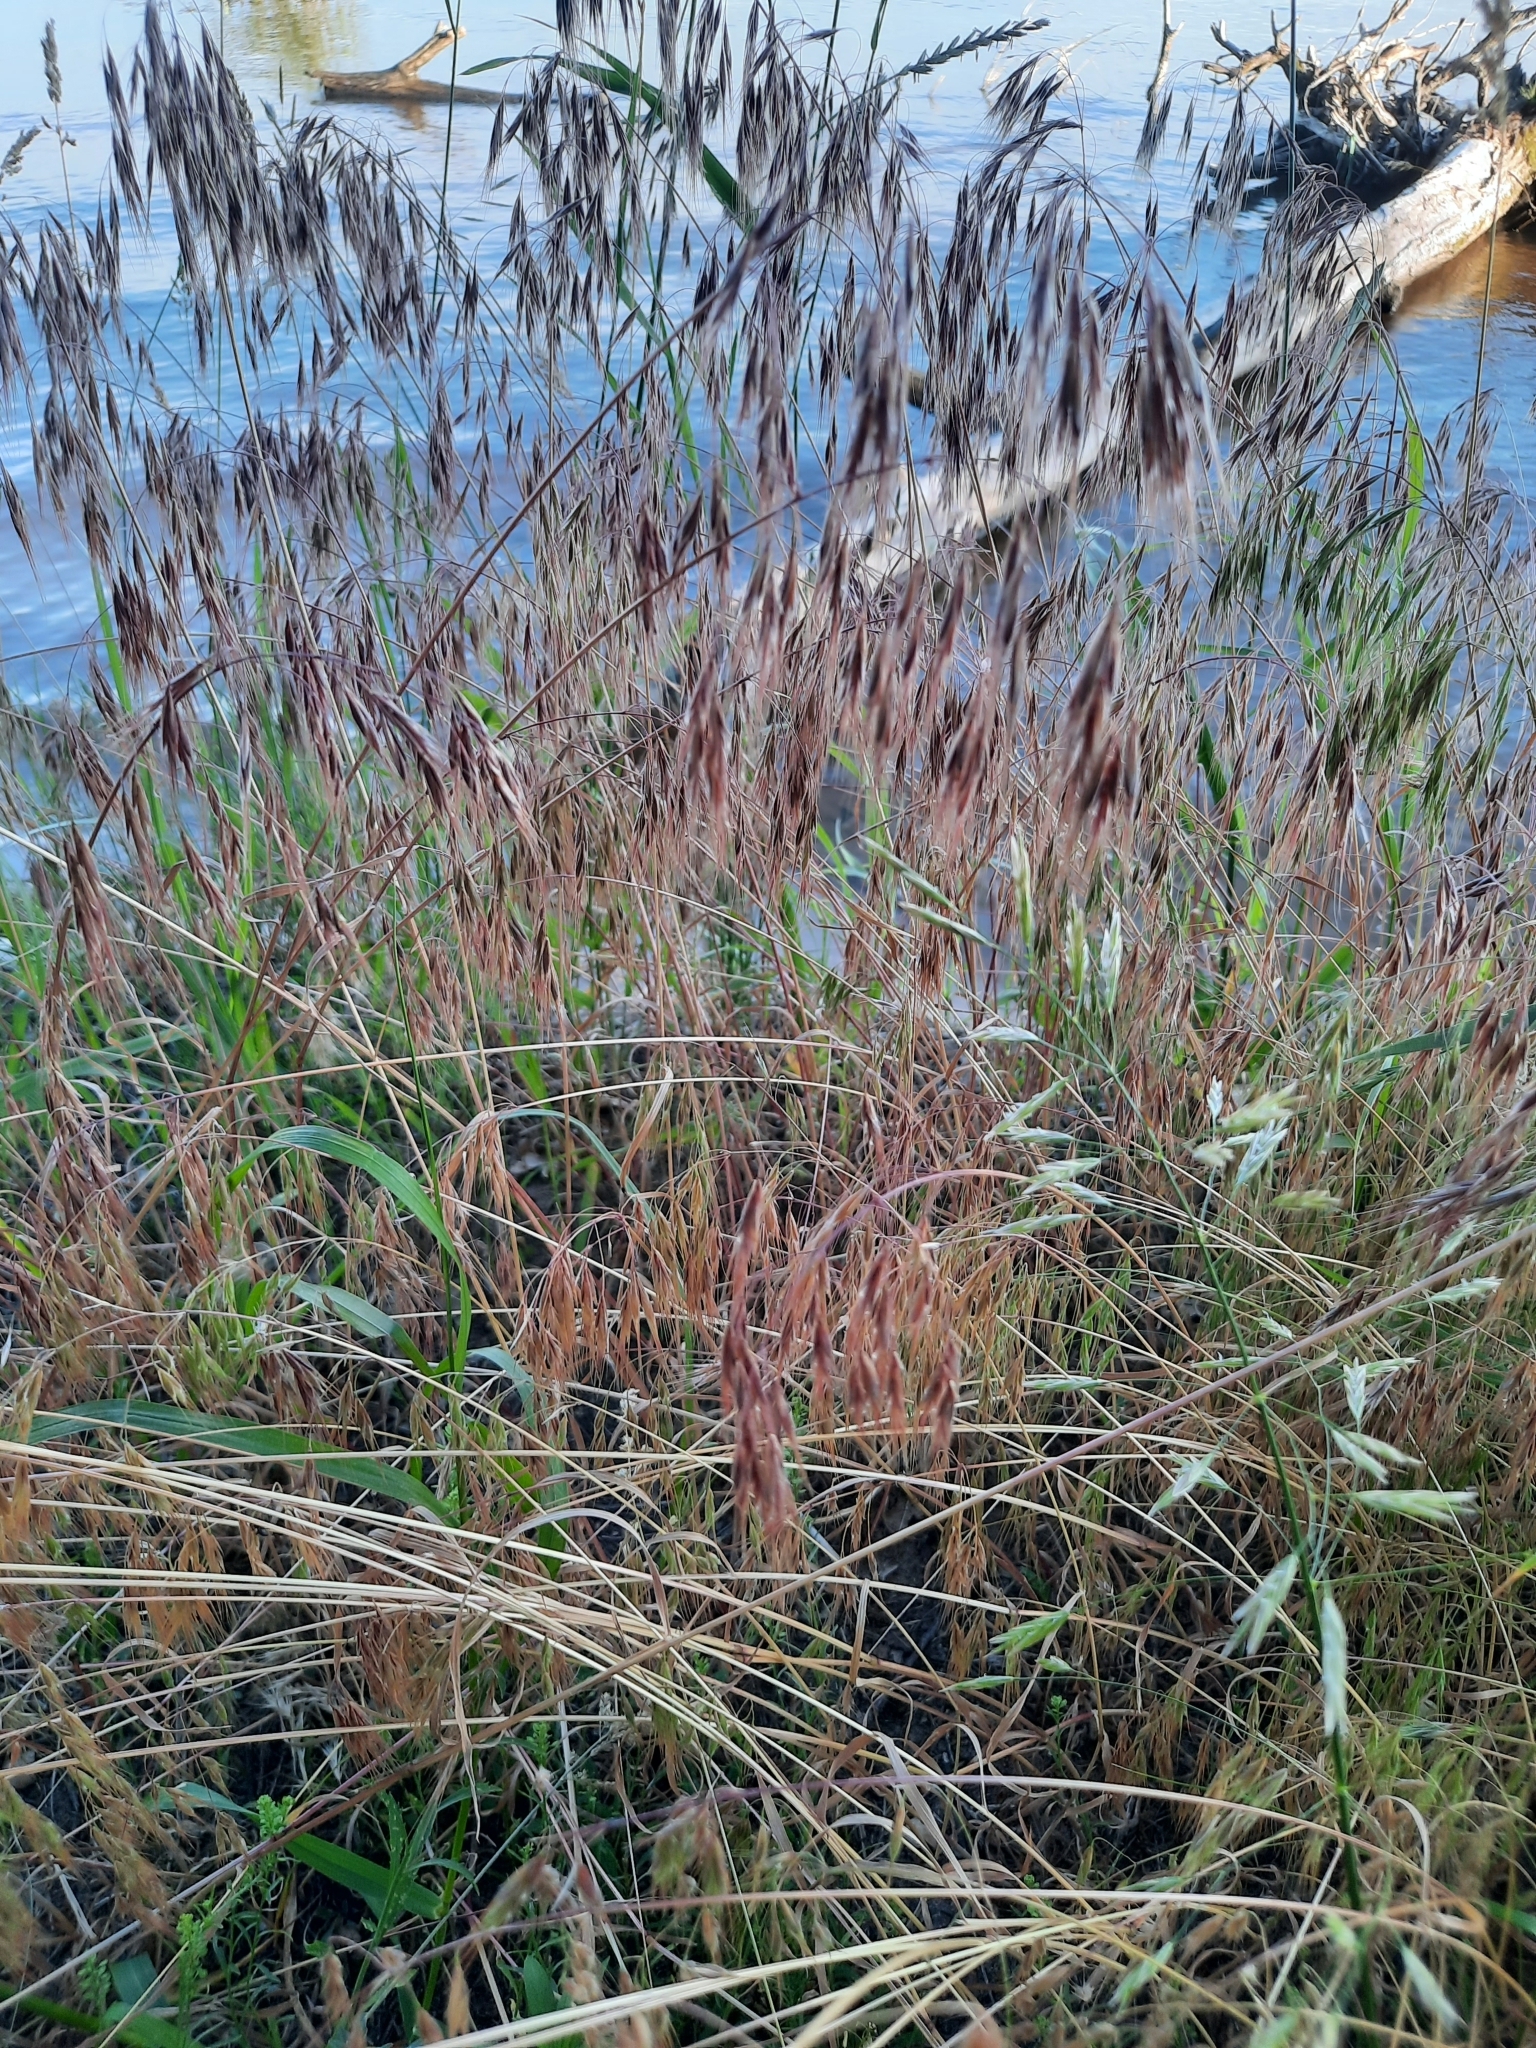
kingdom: Plantae
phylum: Tracheophyta
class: Liliopsida
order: Poales
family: Poaceae
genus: Bromus
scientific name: Bromus tectorum
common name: Cheatgrass
